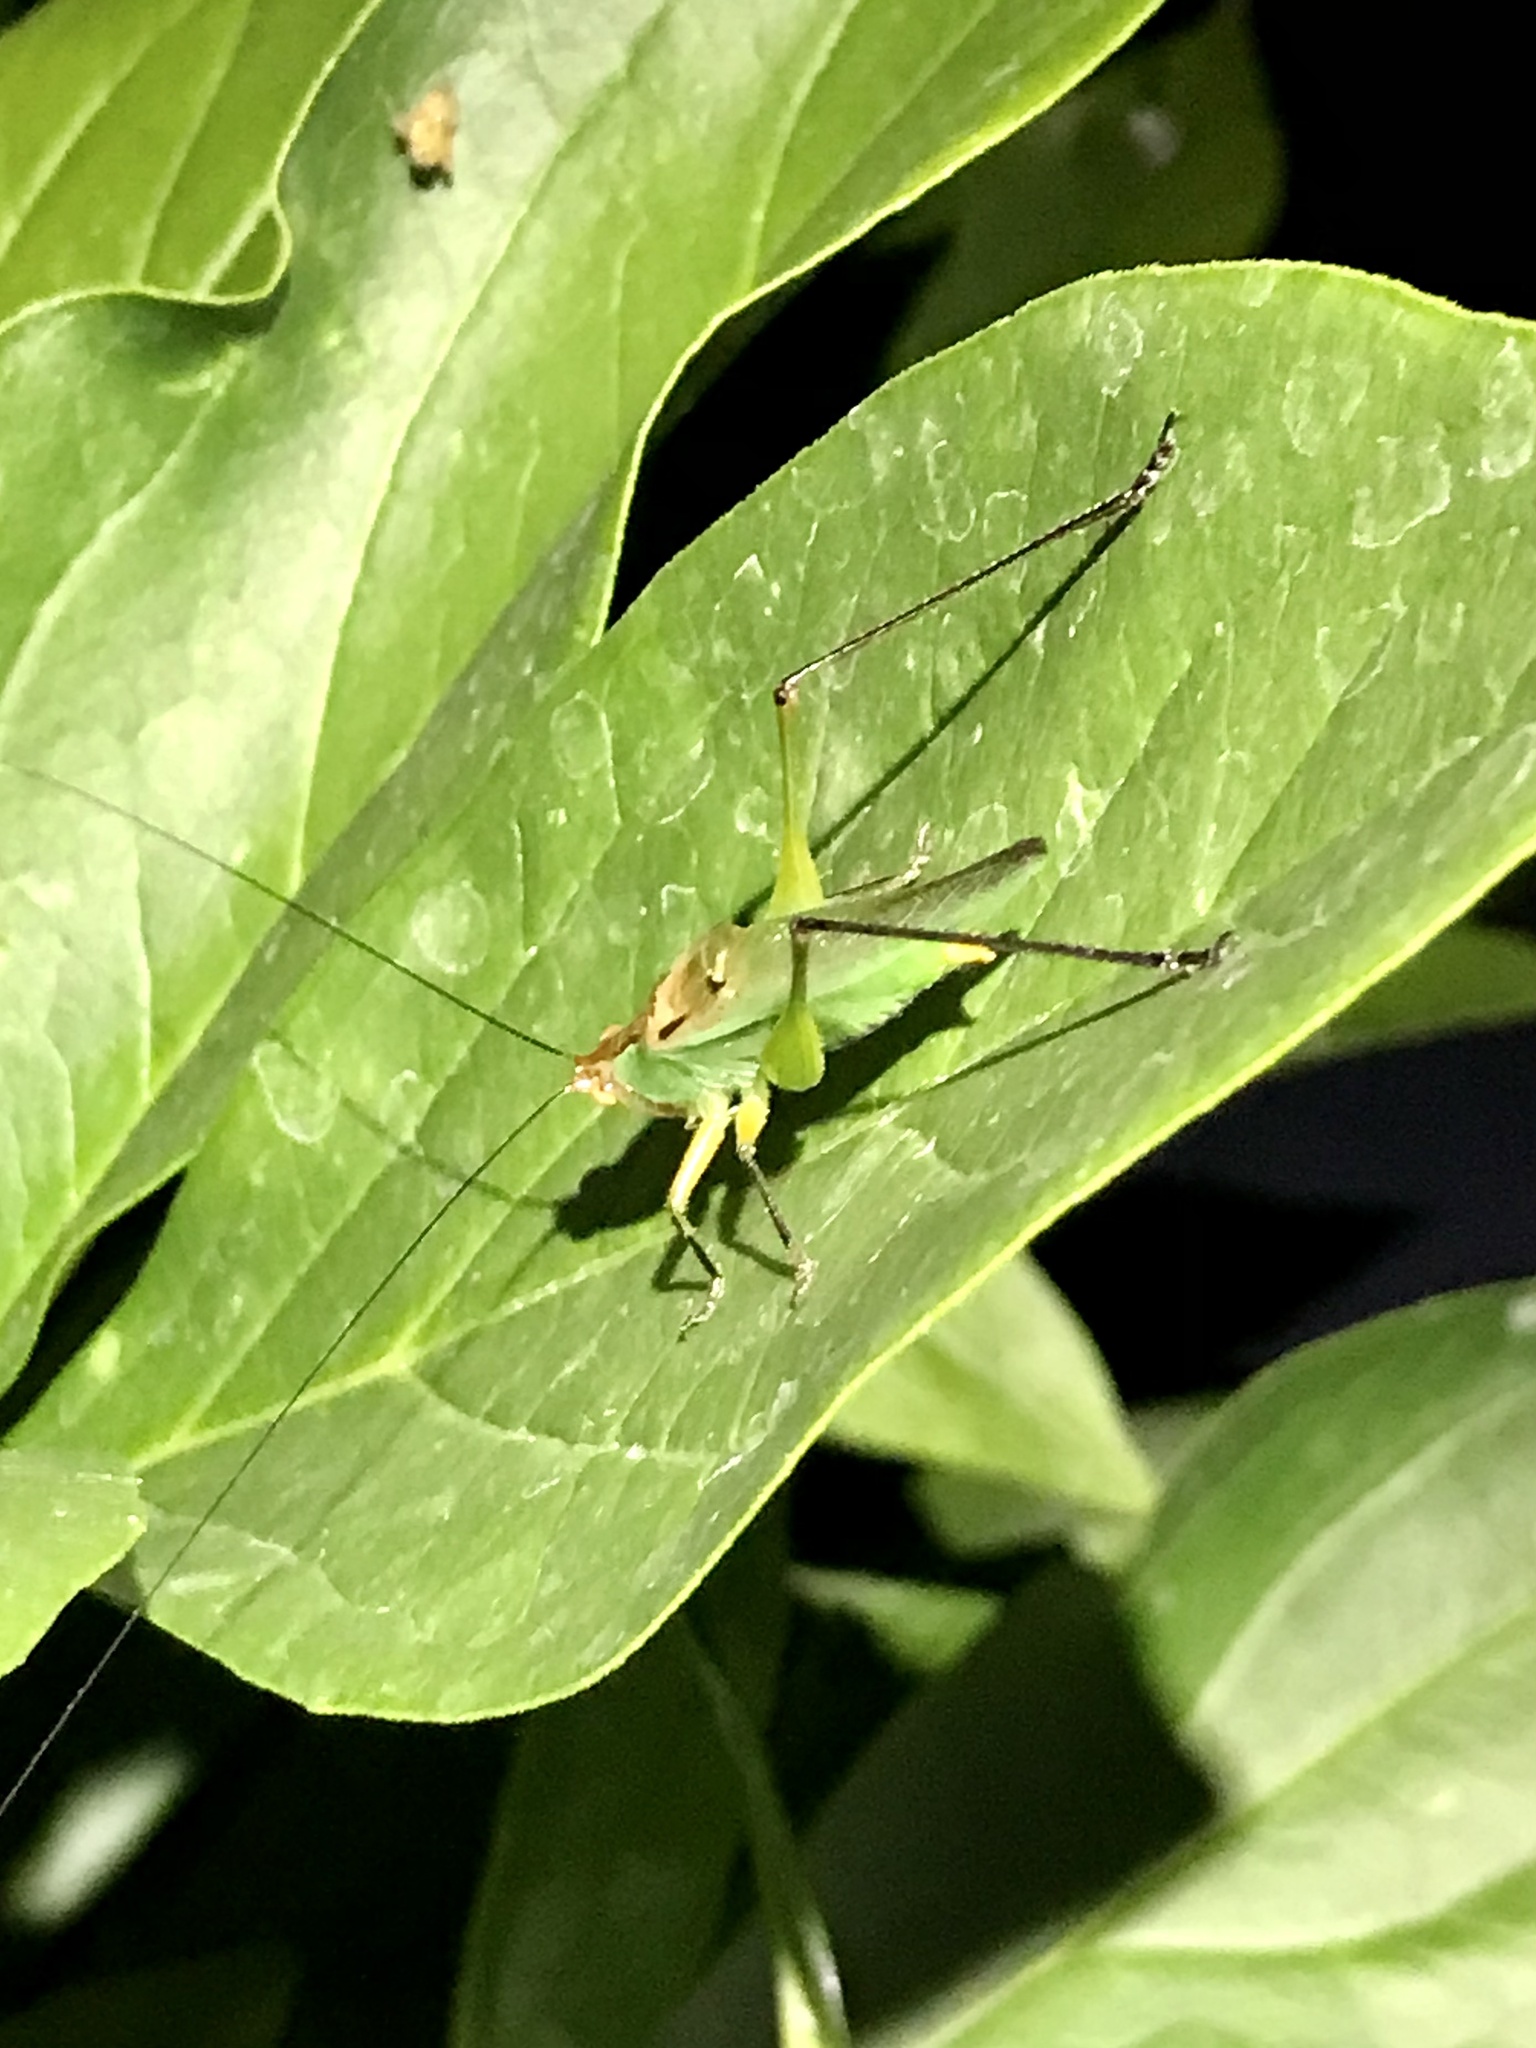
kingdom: Animalia
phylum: Arthropoda
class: Insecta
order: Orthoptera
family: Tettigoniidae
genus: Orchelimum
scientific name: Orchelimum nigripes
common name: Black-legged meadow katydid
